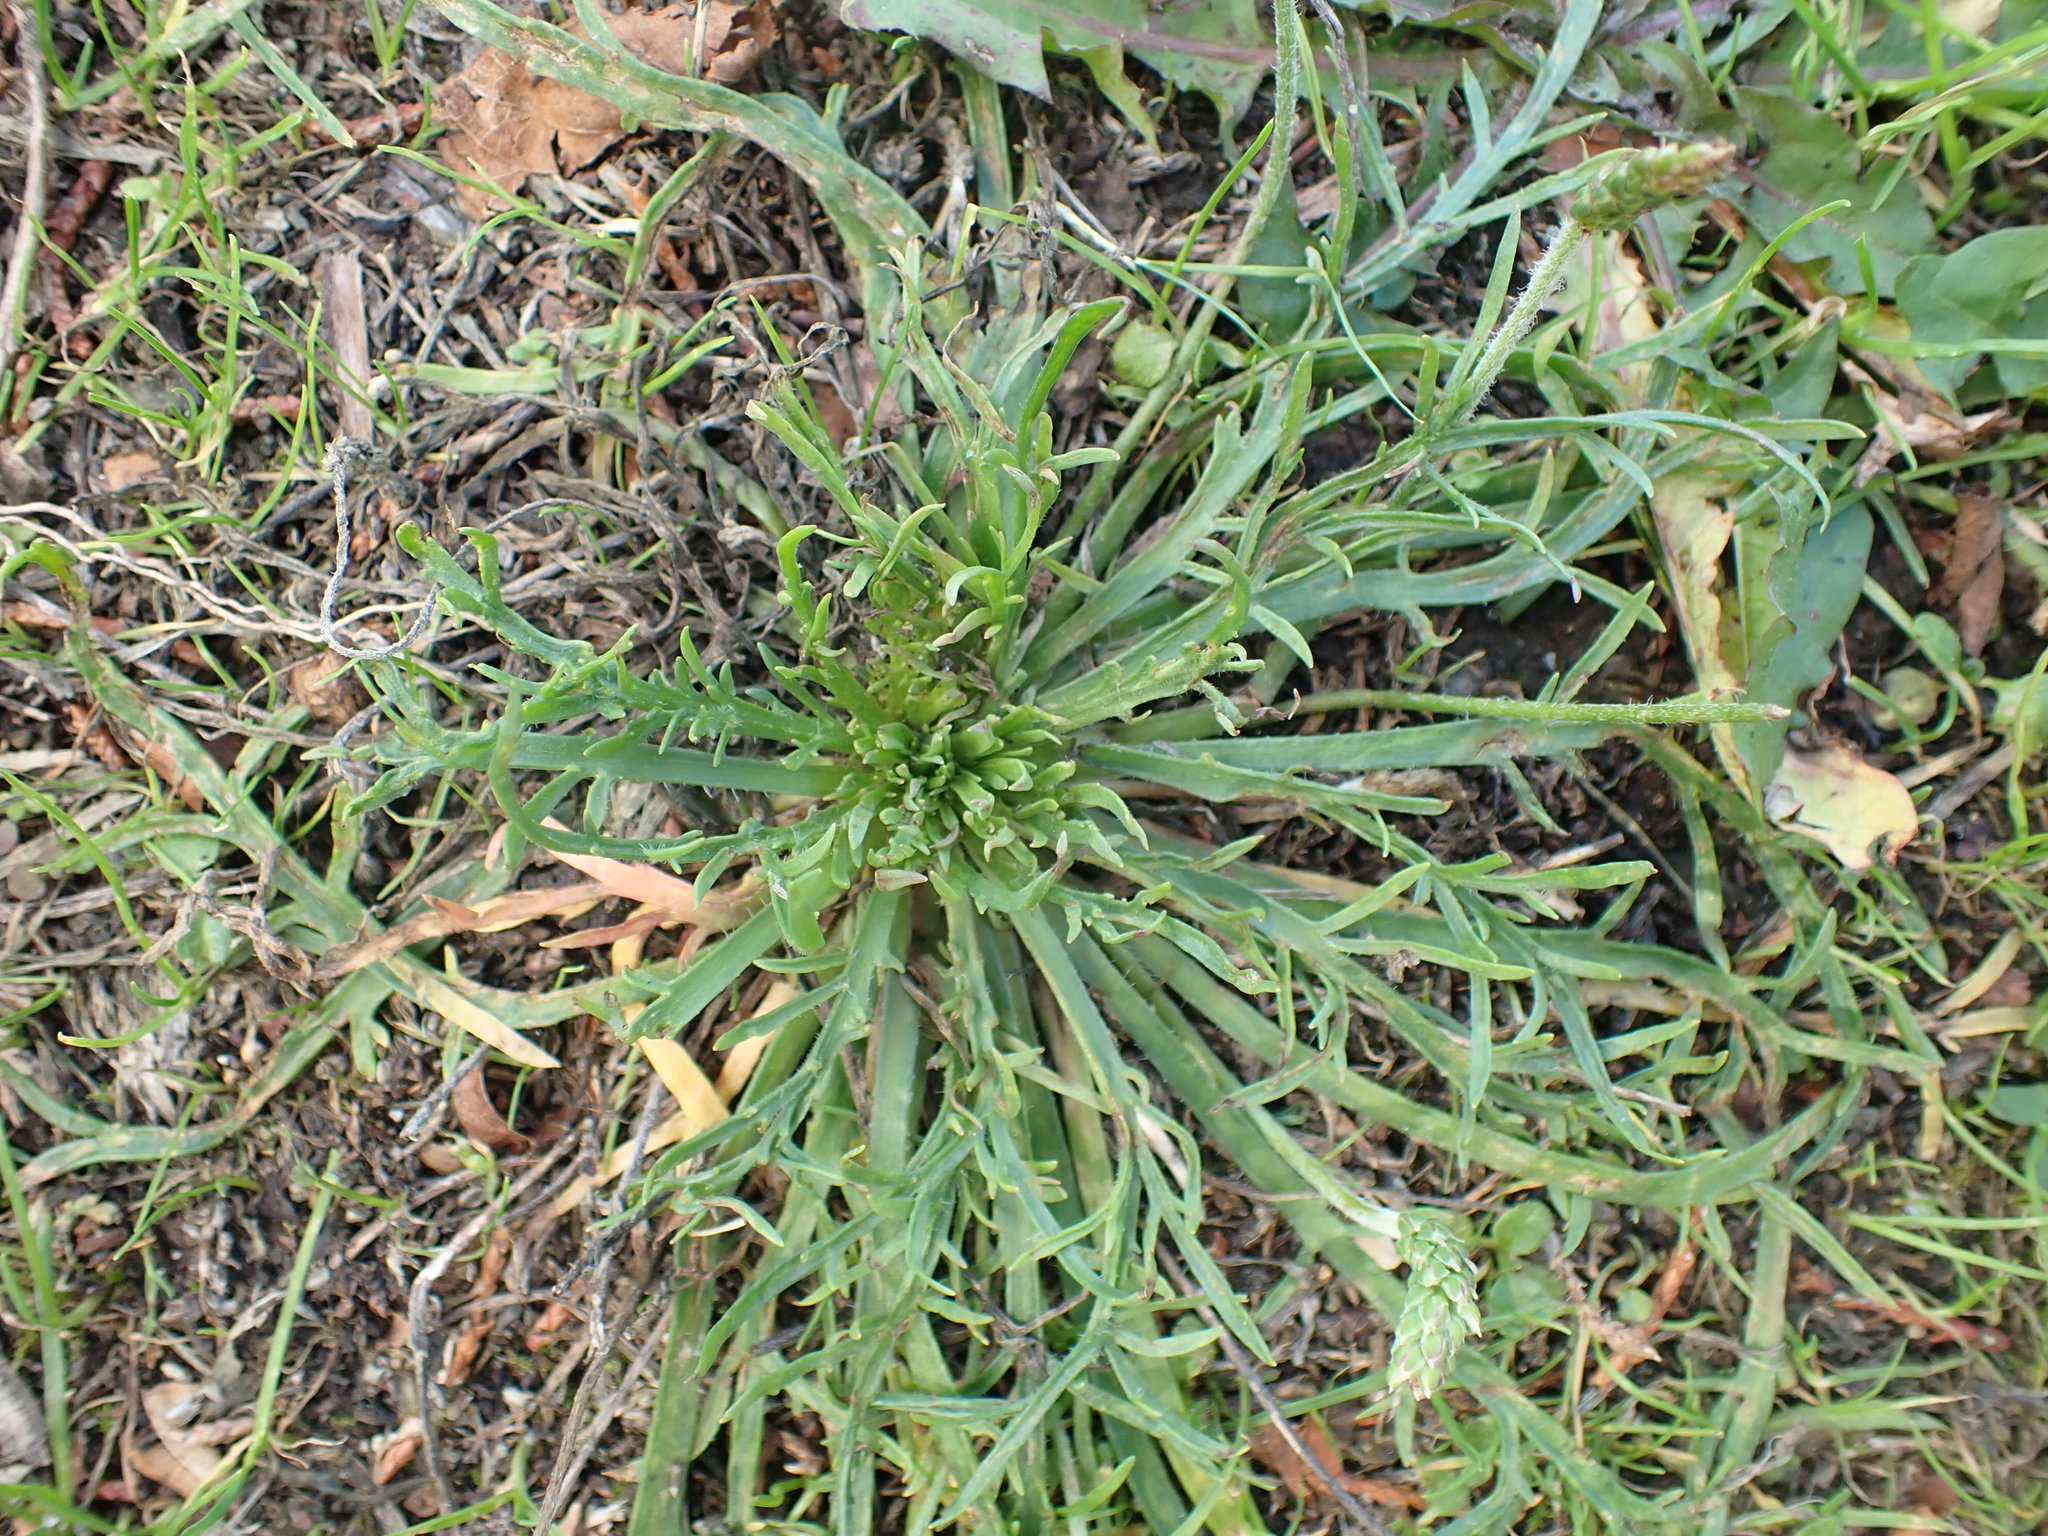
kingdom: Plantae
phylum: Tracheophyta
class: Magnoliopsida
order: Lamiales
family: Plantaginaceae
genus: Plantago
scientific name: Plantago coronopus
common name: Buck's-horn plantain
